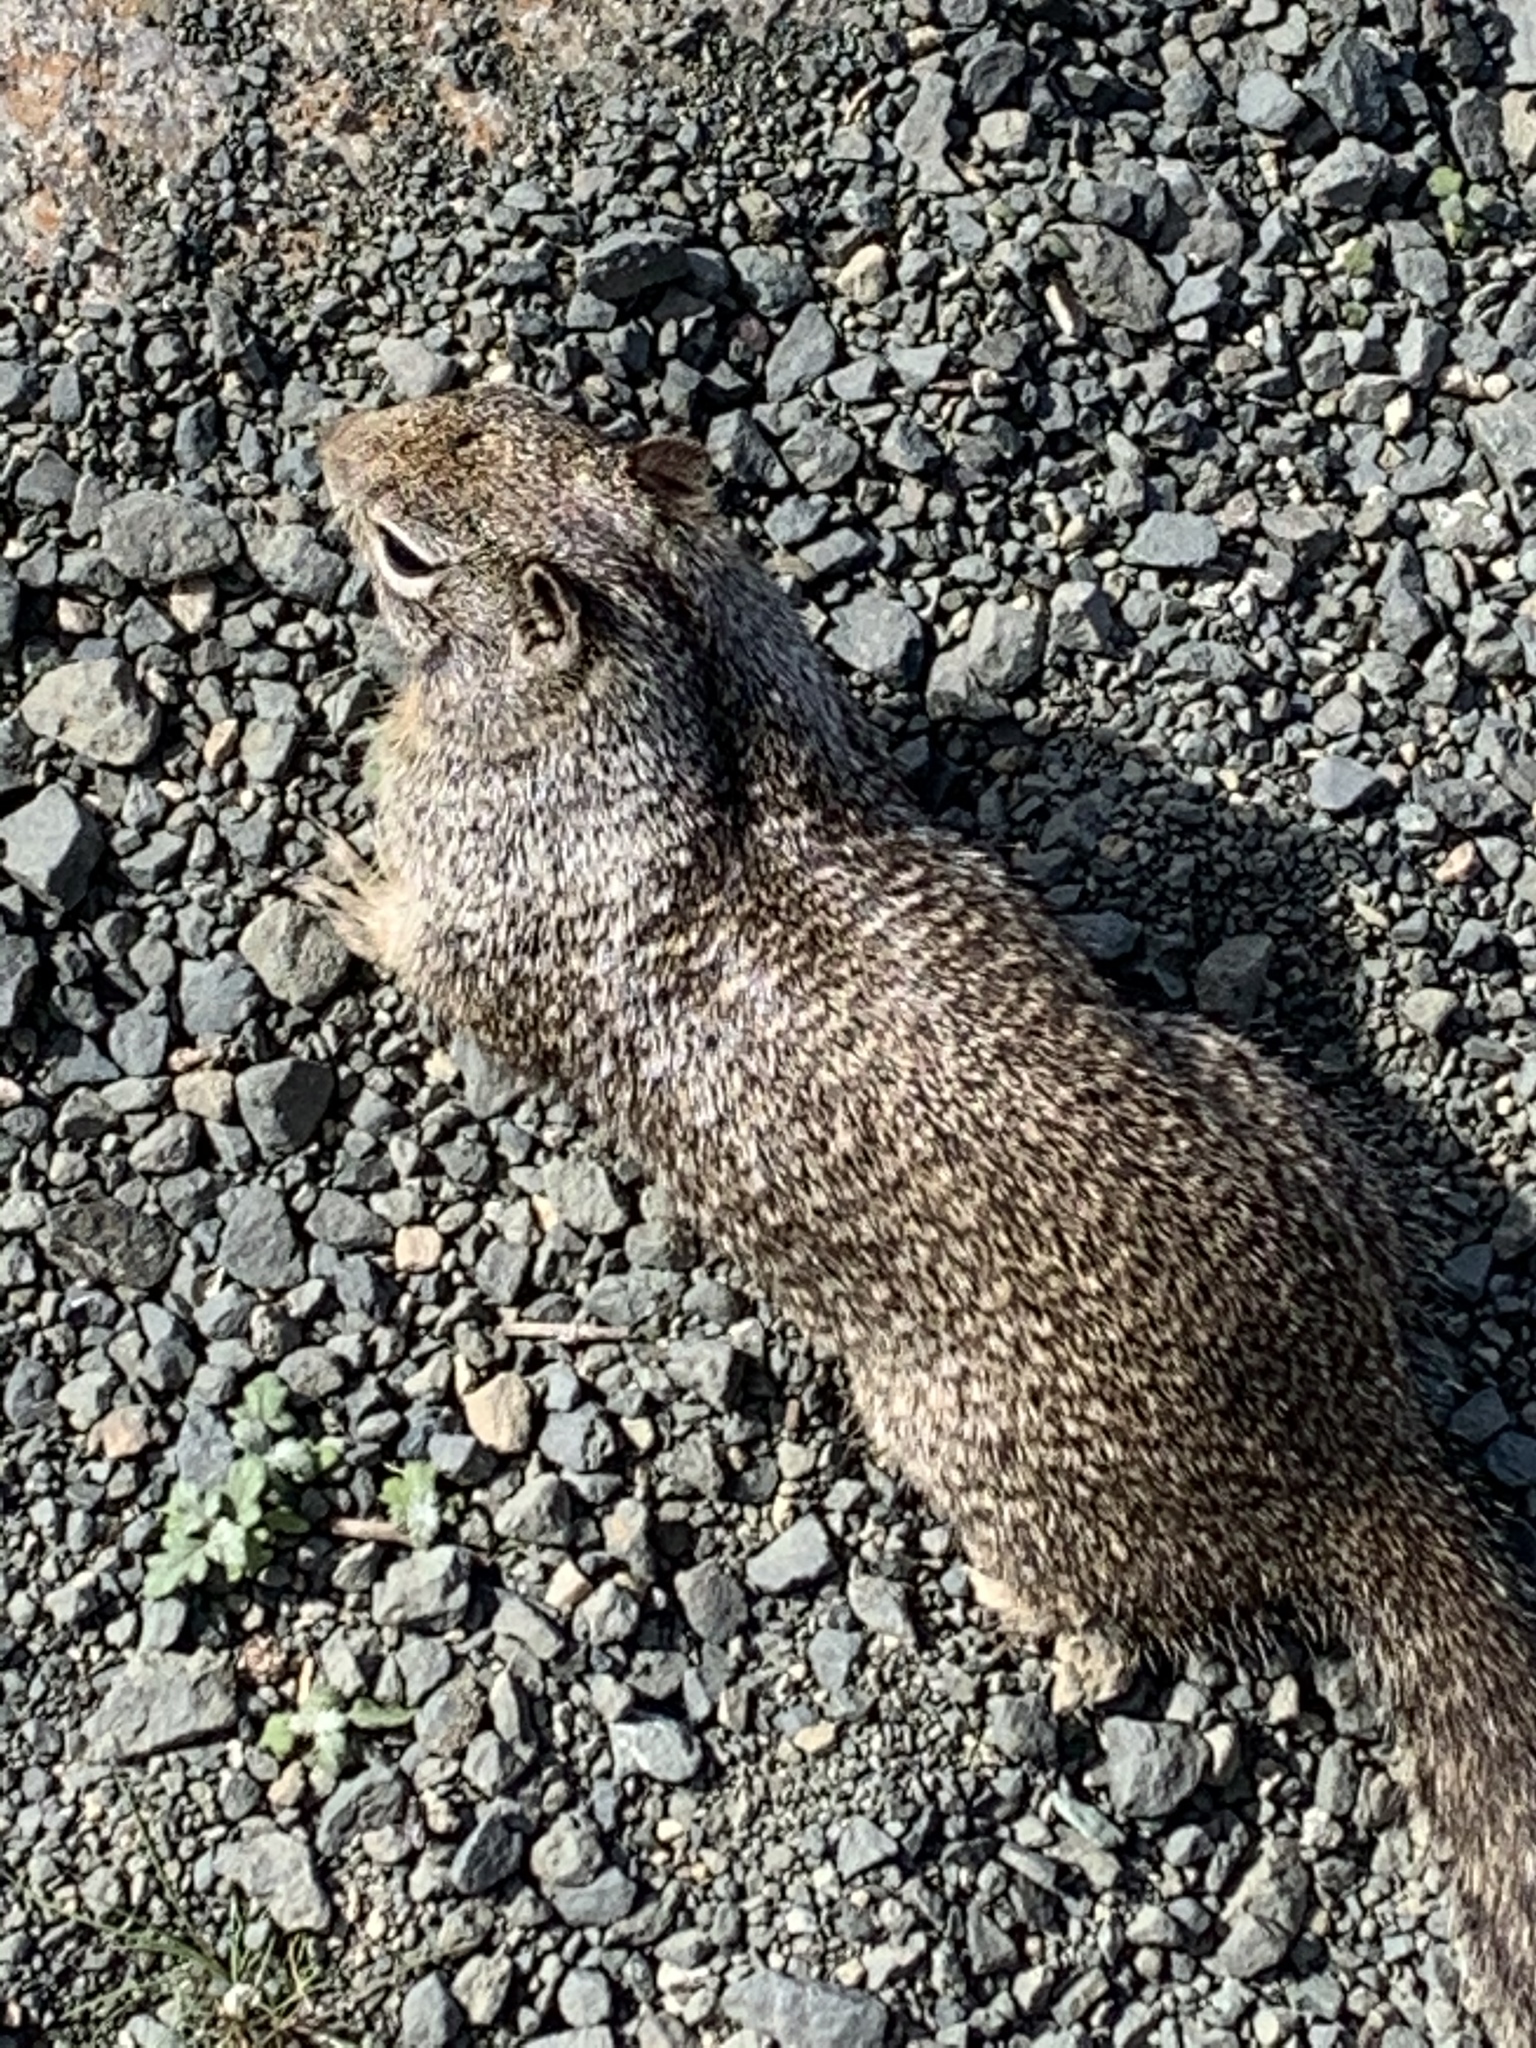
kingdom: Animalia
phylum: Chordata
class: Mammalia
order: Rodentia
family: Sciuridae
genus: Otospermophilus
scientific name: Otospermophilus beecheyi
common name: California ground squirrel
